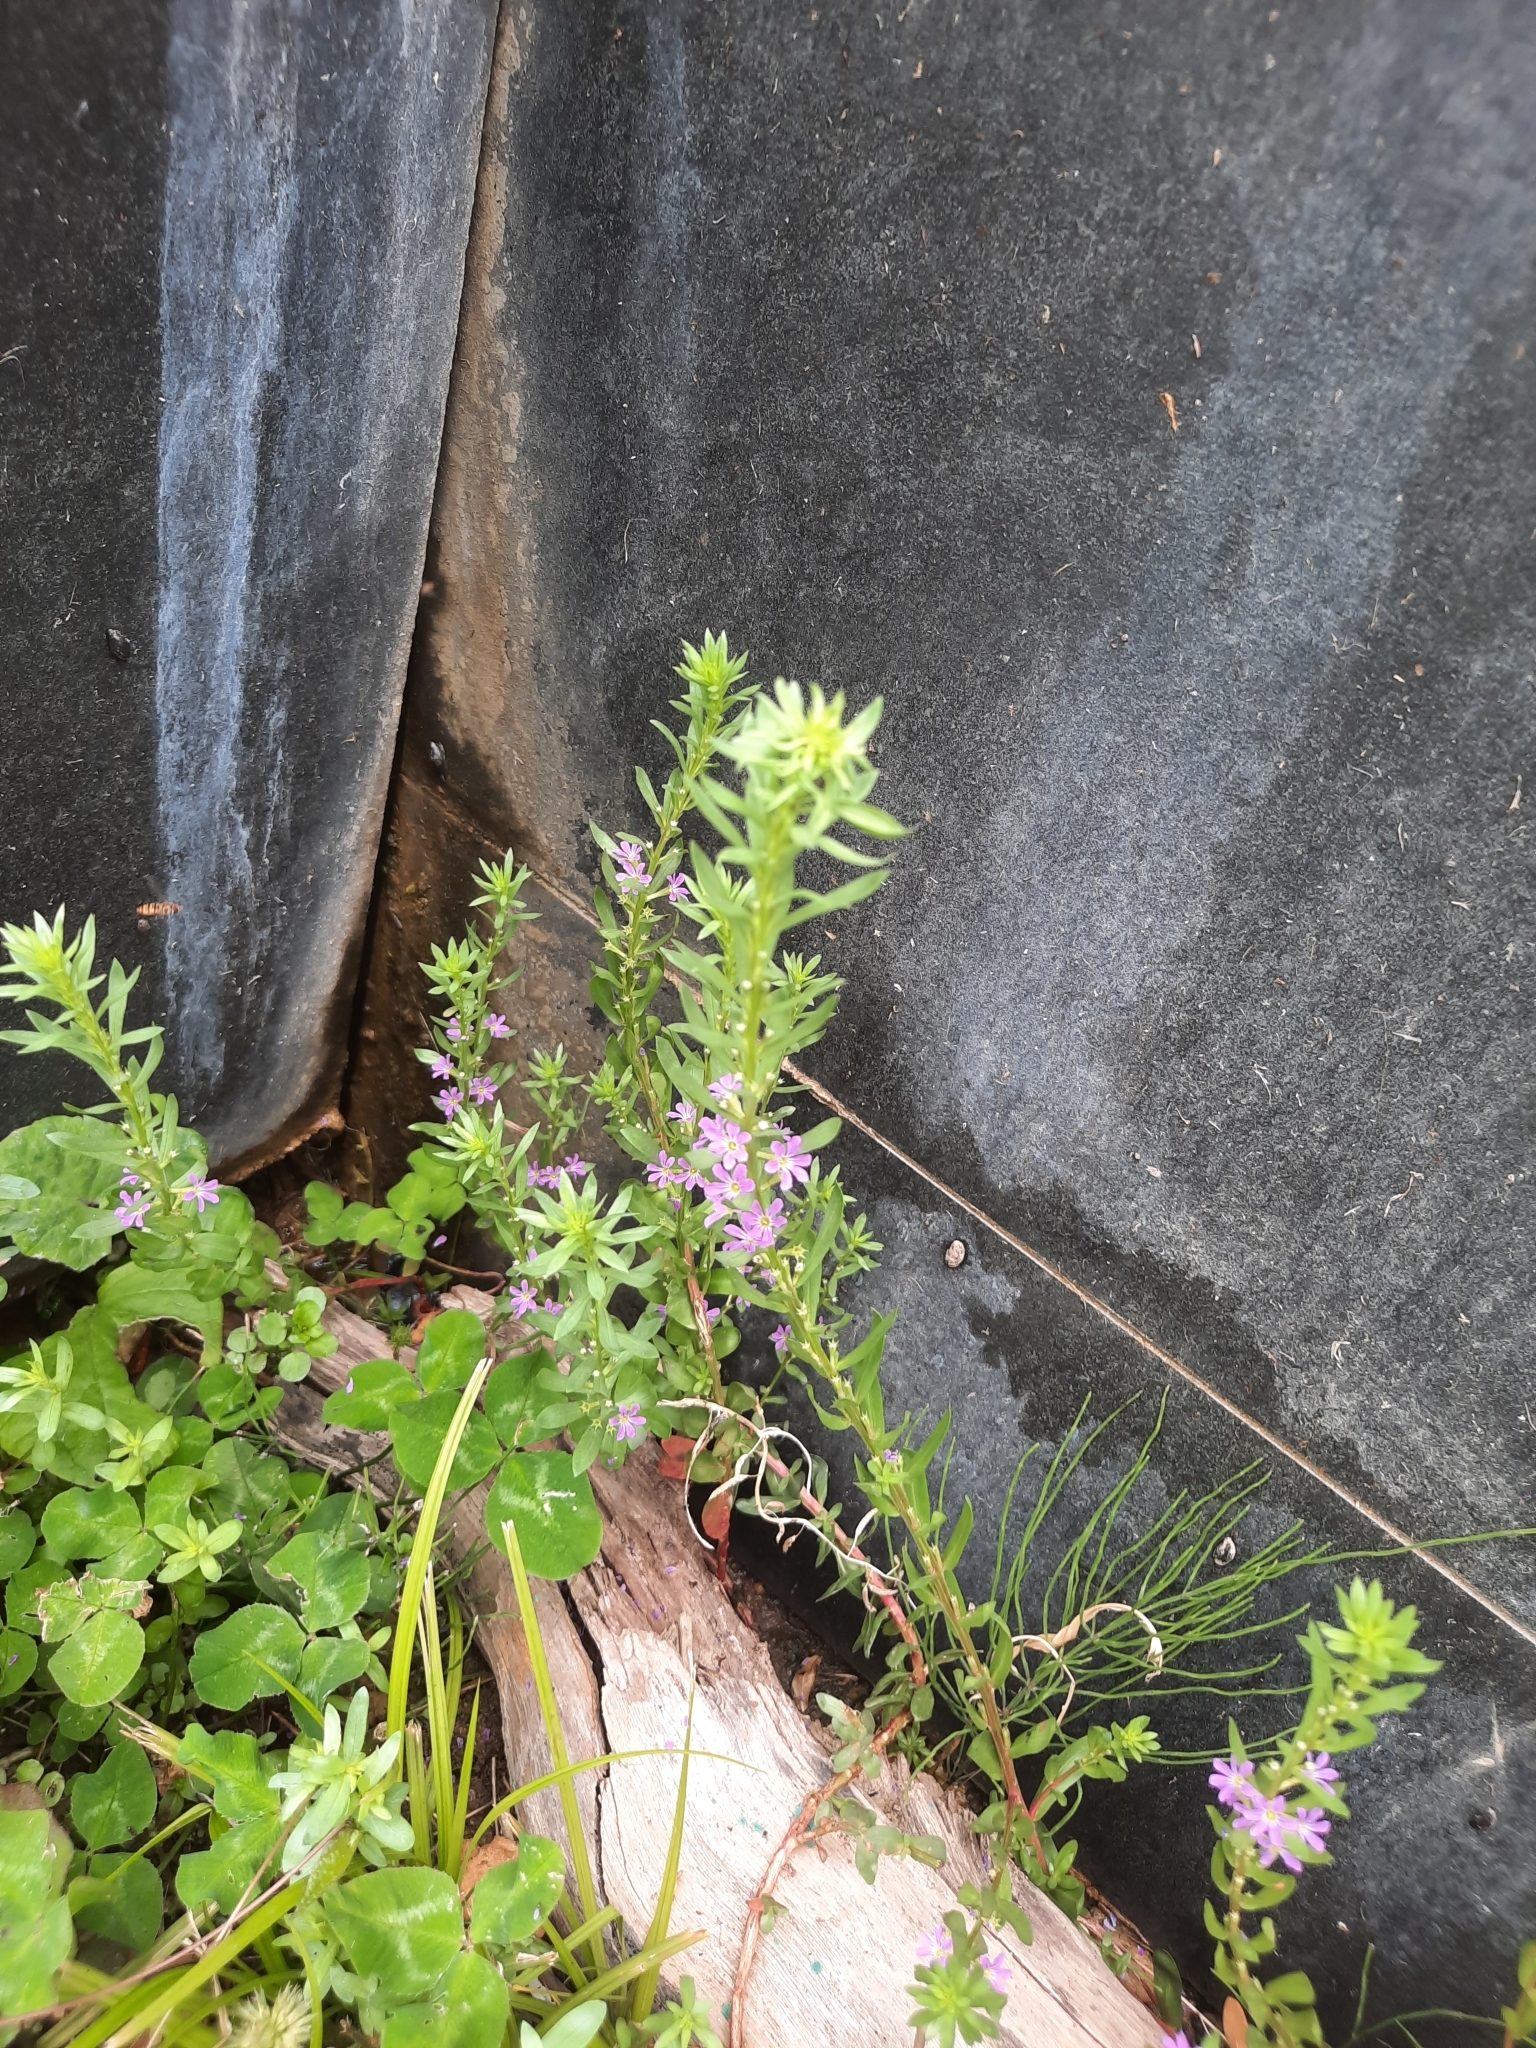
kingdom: Plantae
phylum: Tracheophyta
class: Magnoliopsida
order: Myrtales
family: Lythraceae
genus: Lythrum
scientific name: Lythrum hyssopifolia
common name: Grass-poly
